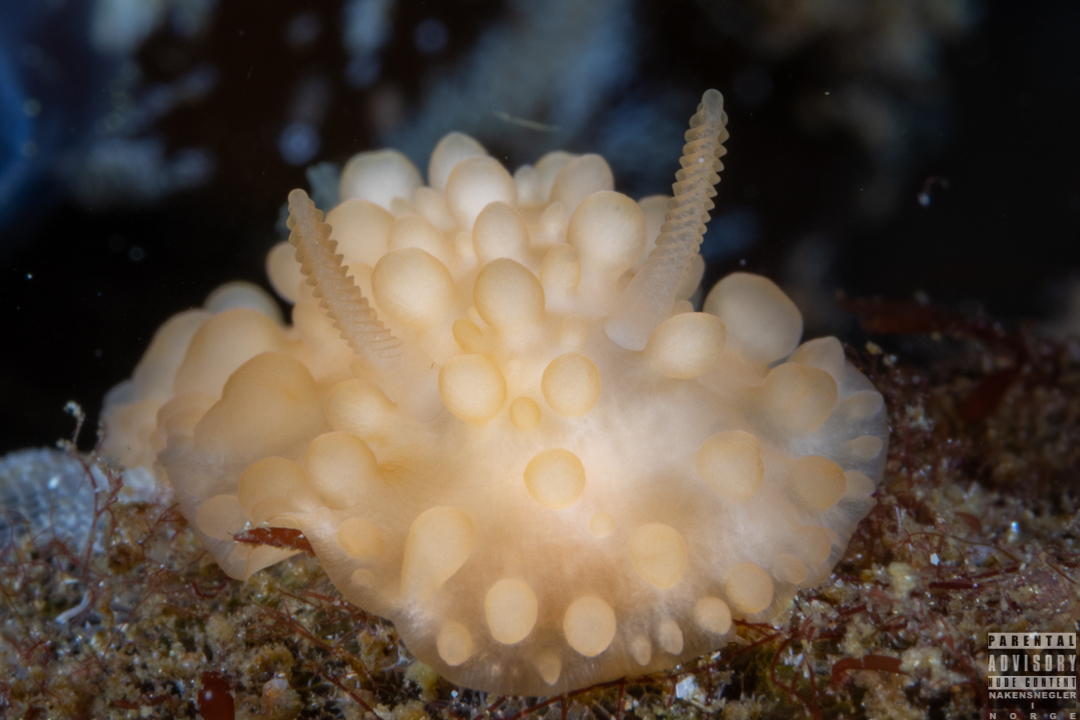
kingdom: Animalia
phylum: Mollusca
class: Gastropoda
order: Nudibranchia
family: Onchidorididae
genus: Adalaria
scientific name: Adalaria loveni
